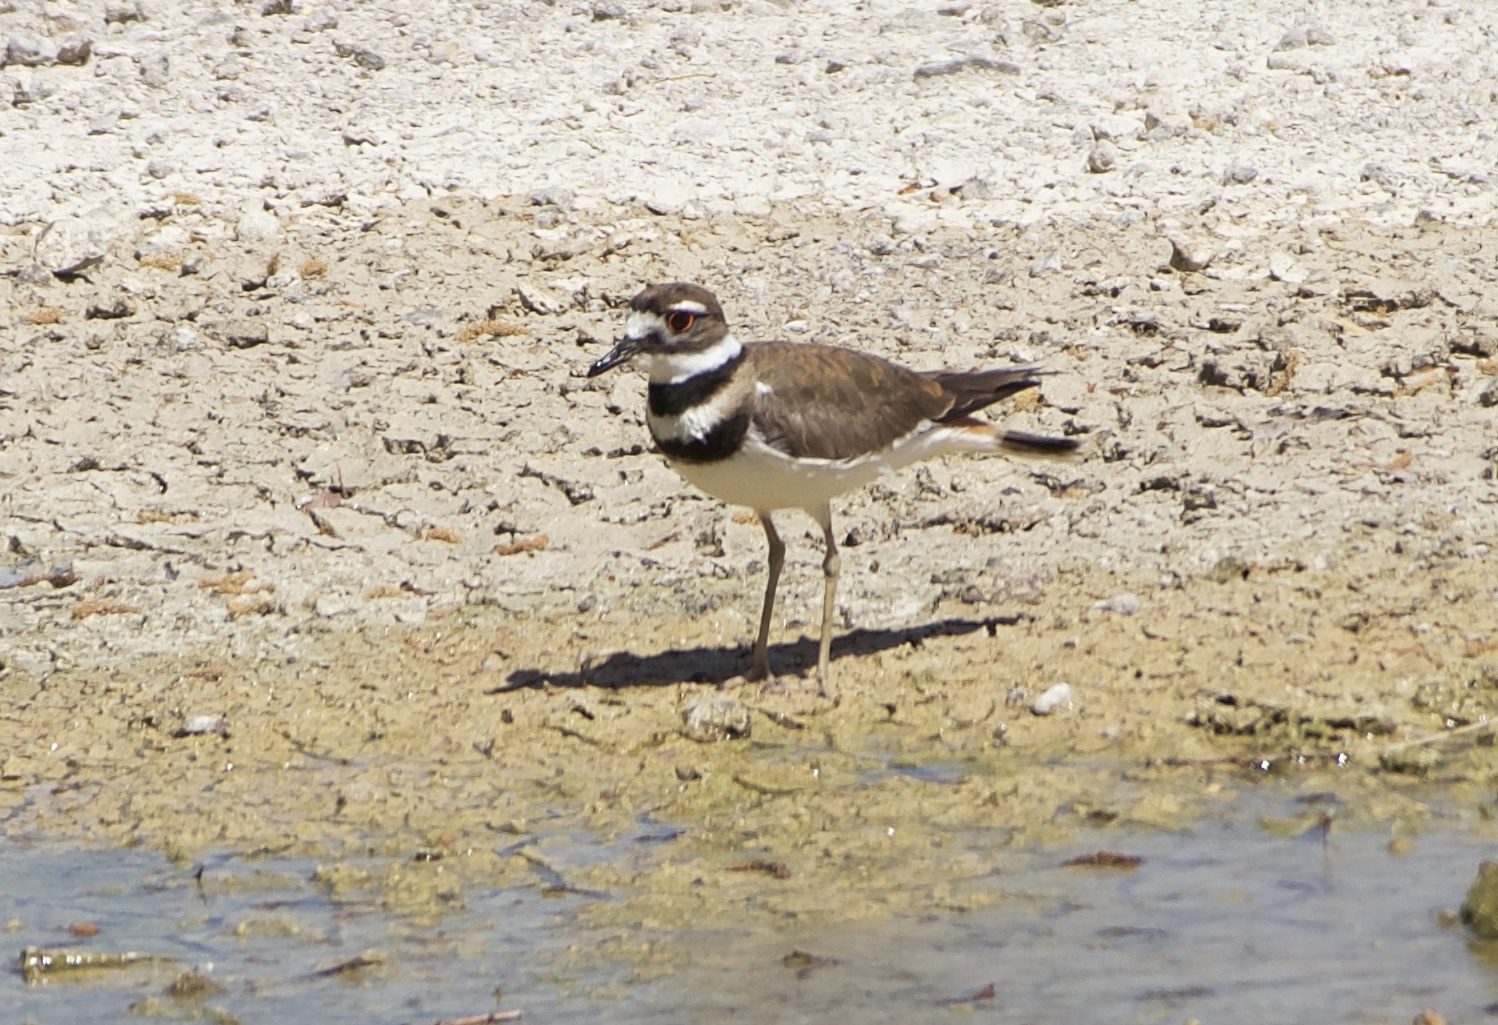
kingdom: Animalia
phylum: Chordata
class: Aves
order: Charadriiformes
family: Charadriidae
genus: Charadrius
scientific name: Charadrius vociferus
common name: Killdeer
